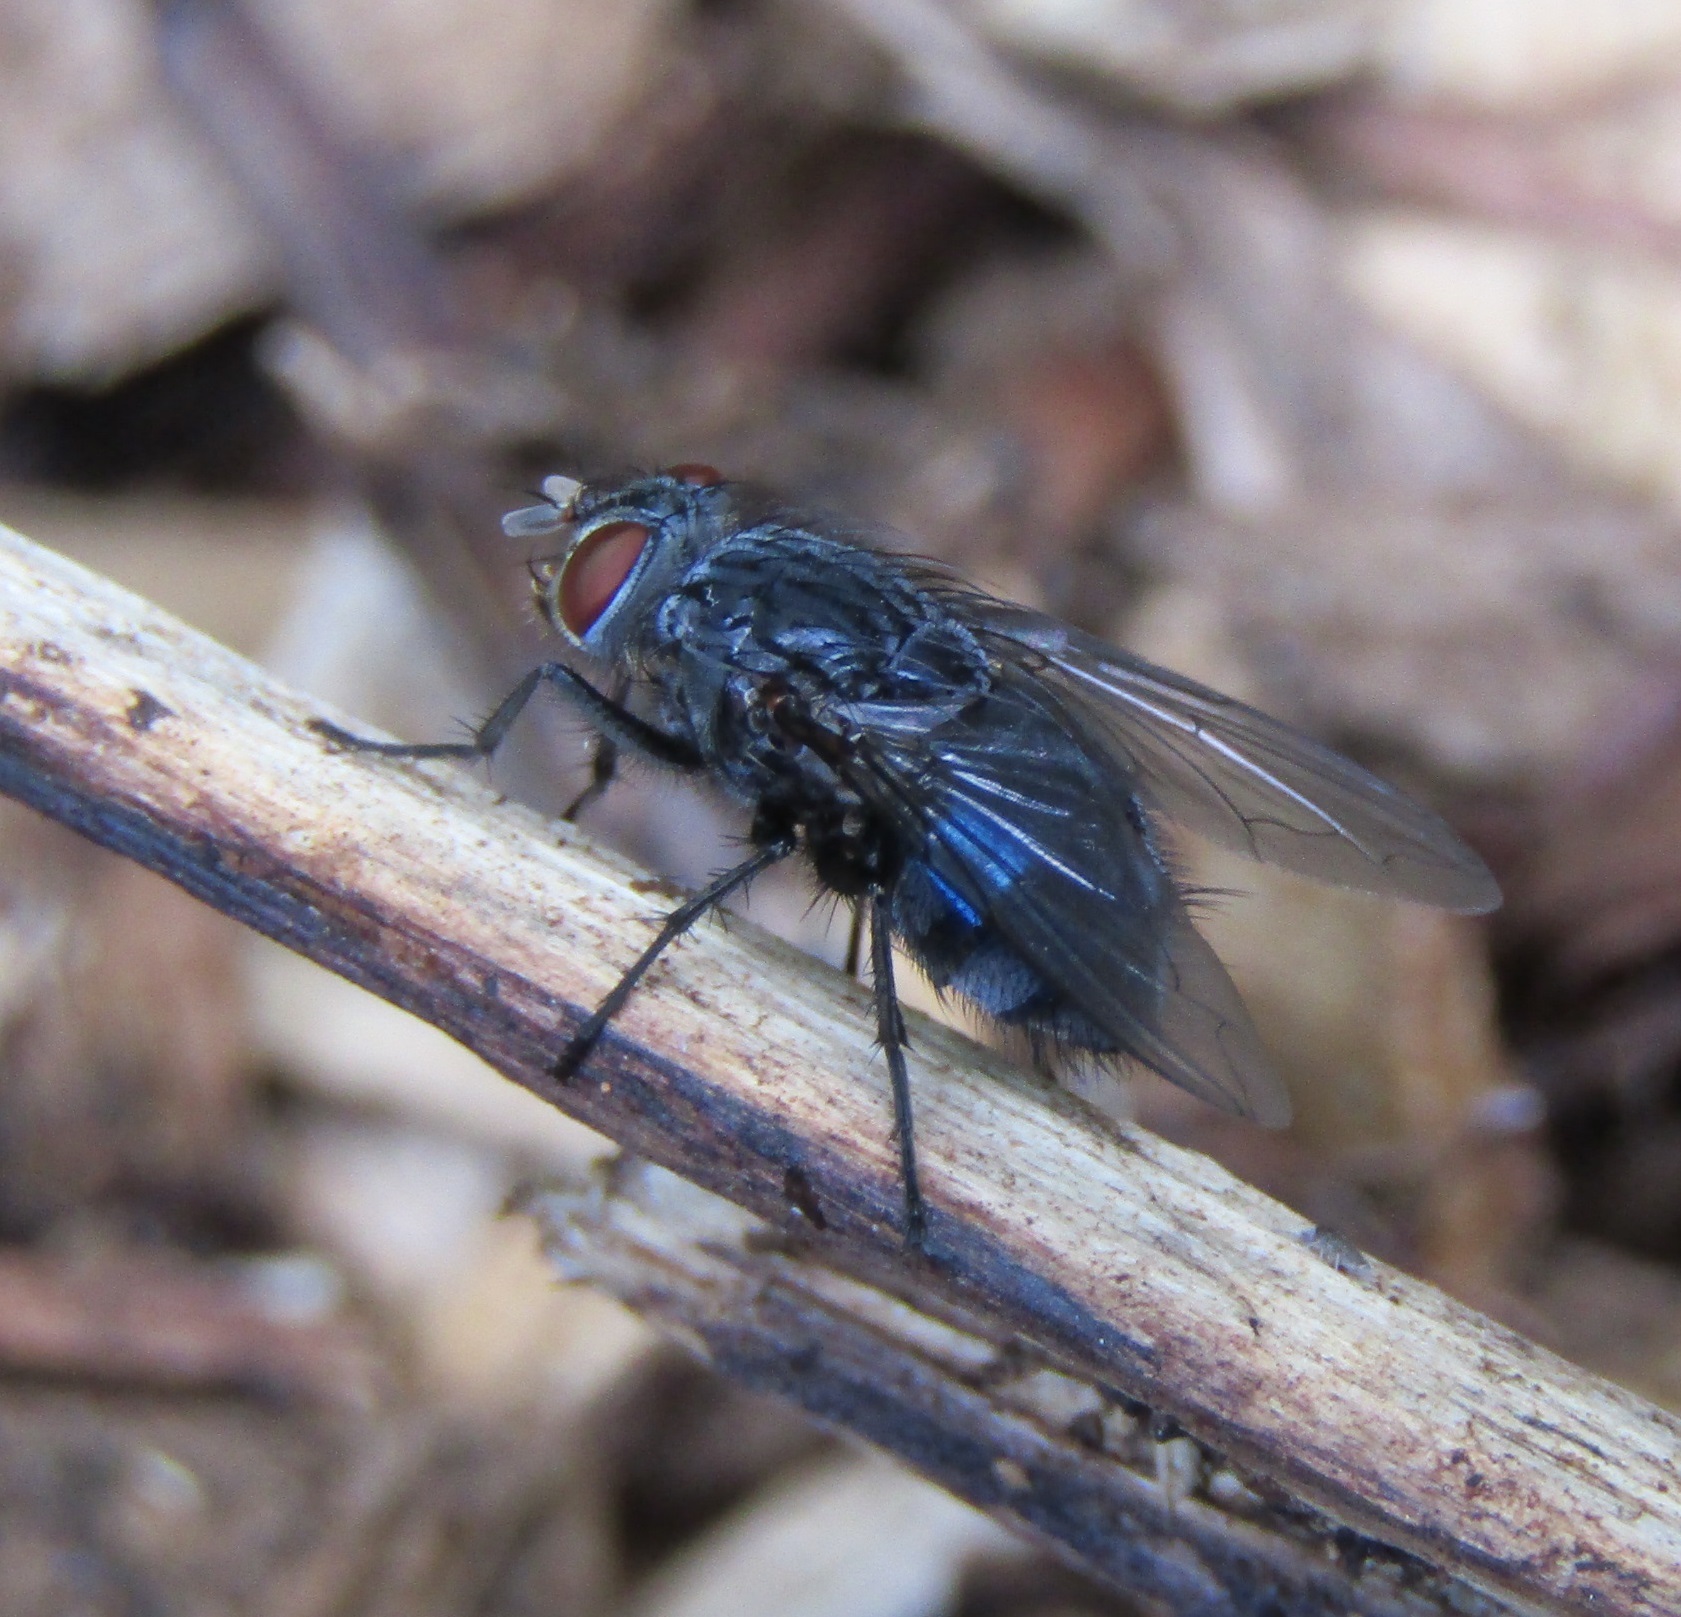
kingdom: Animalia
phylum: Arthropoda
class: Insecta
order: Diptera
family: Calliphoridae
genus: Calliphora
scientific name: Calliphora vicina
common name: Common blow flie
